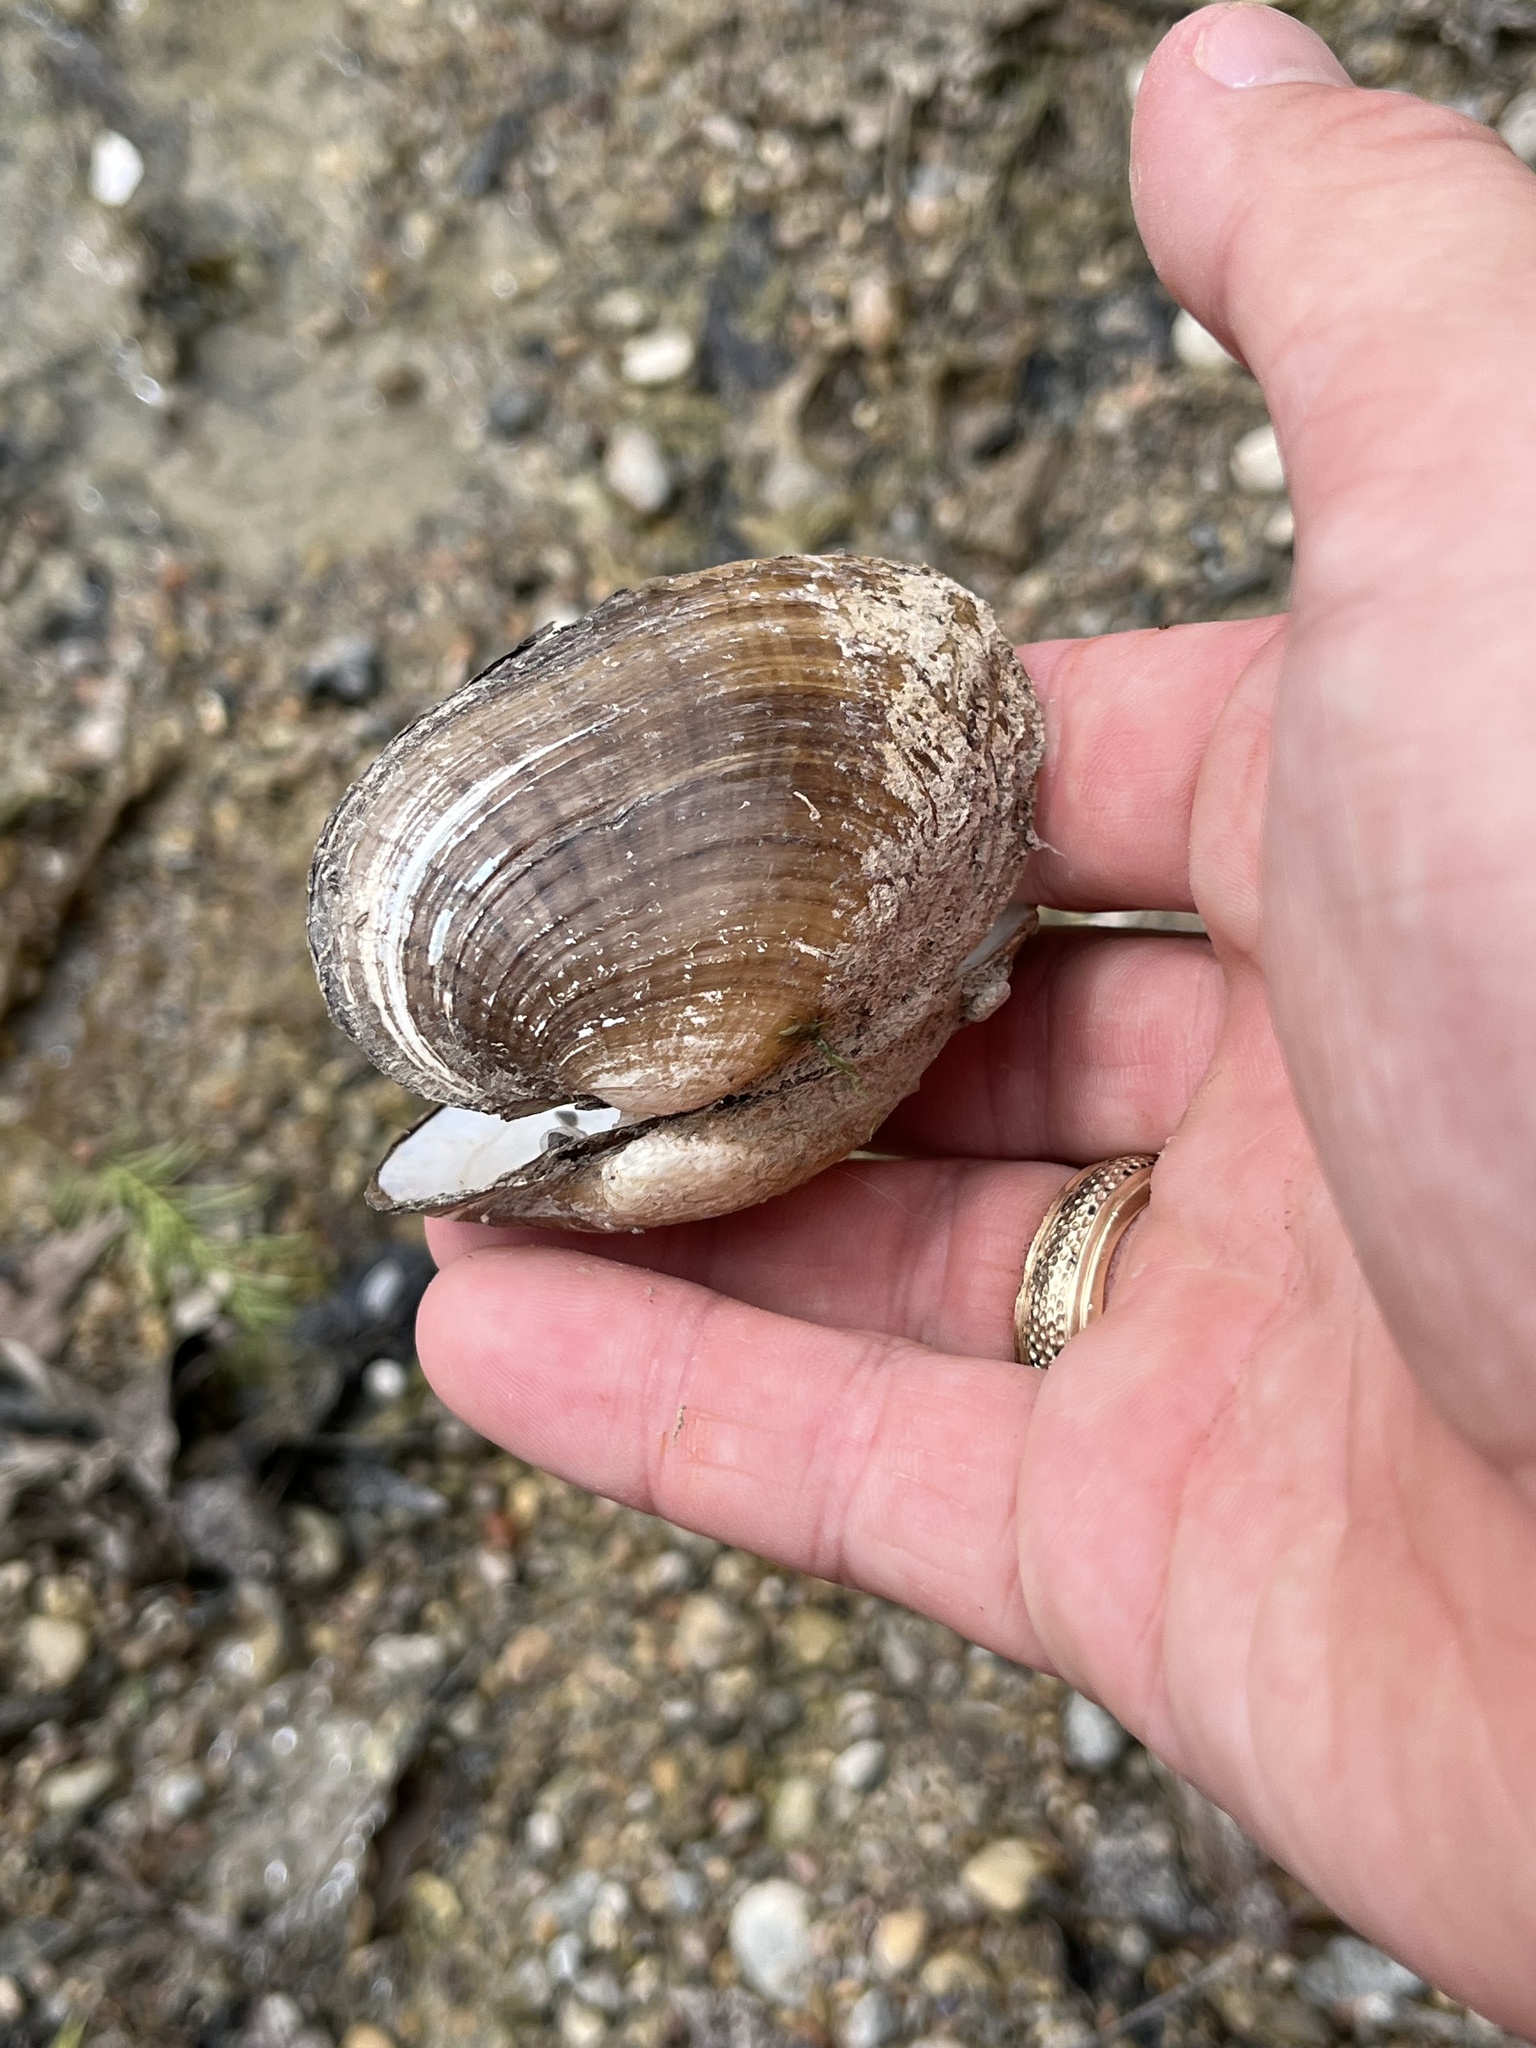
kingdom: Animalia
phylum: Mollusca
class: Bivalvia
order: Unionida
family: Unionidae
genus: Lampsilis
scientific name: Lampsilis bracteata
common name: Texas fatmucket
